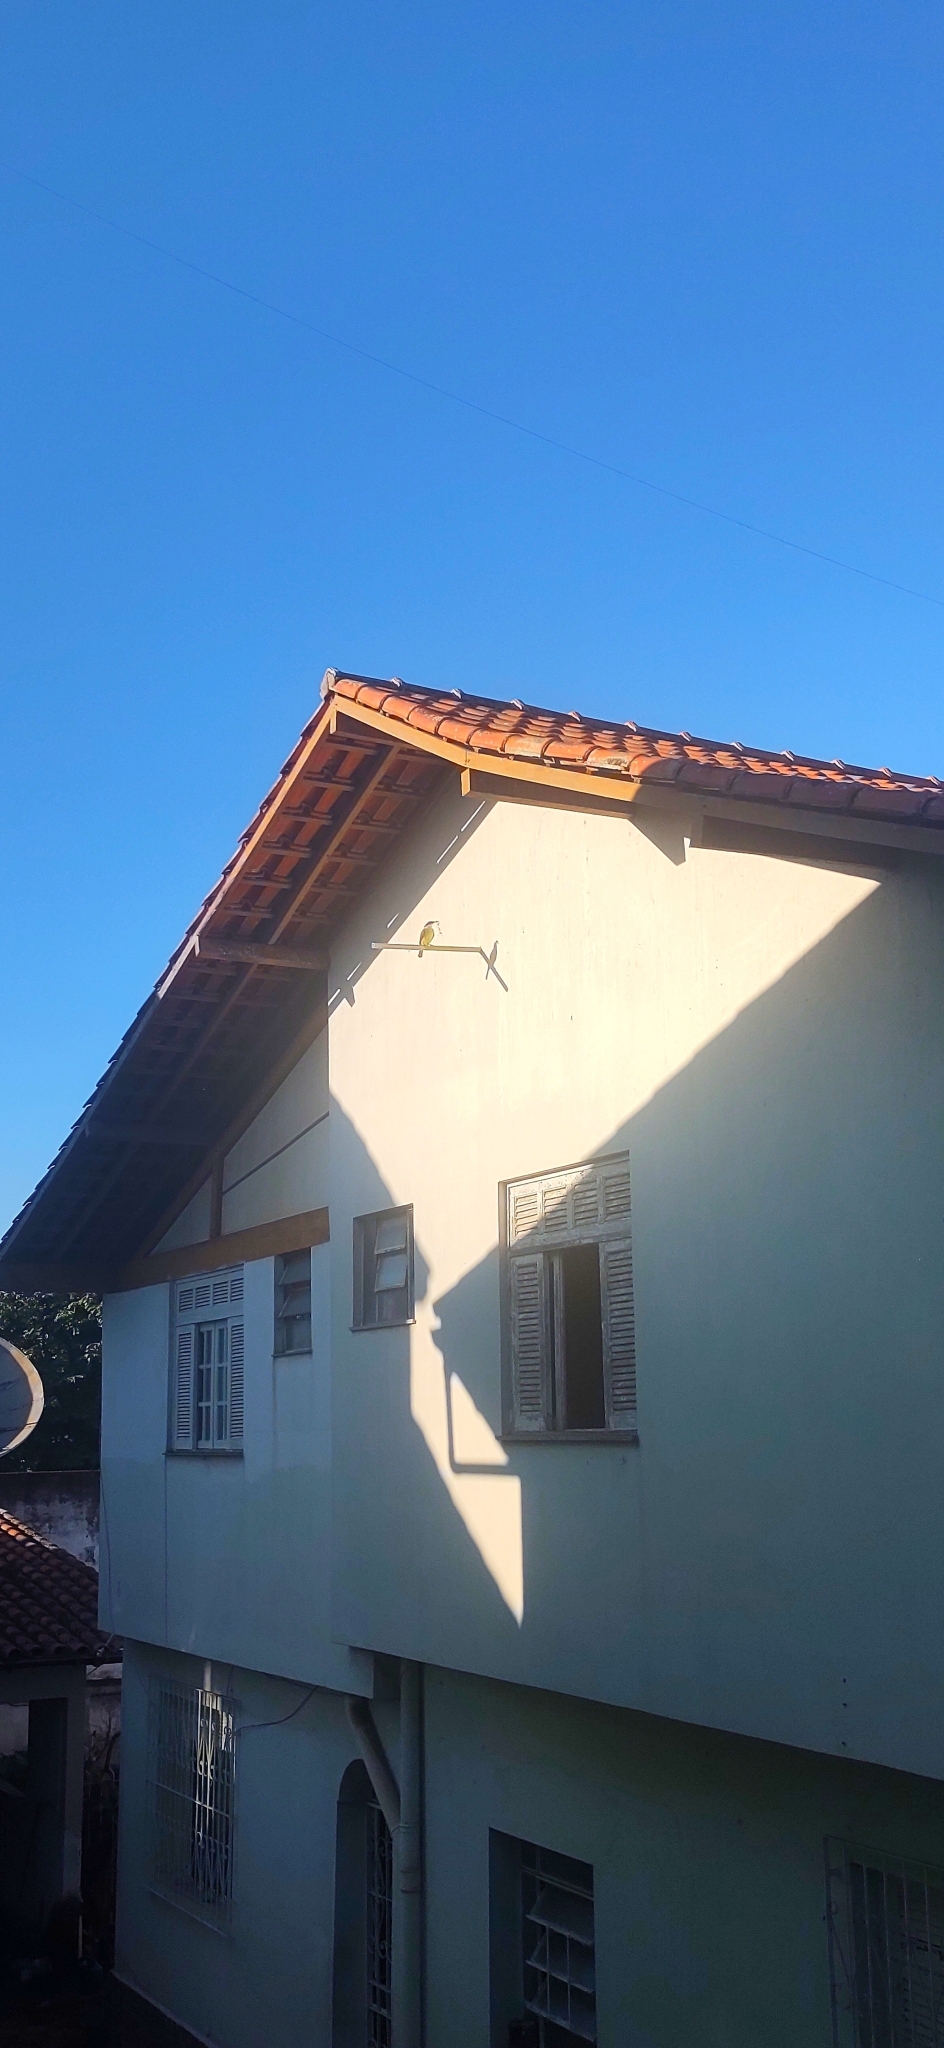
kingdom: Animalia
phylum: Chordata
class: Aves
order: Passeriformes
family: Tyrannidae
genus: Pitangus
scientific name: Pitangus sulphuratus
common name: Great kiskadee
